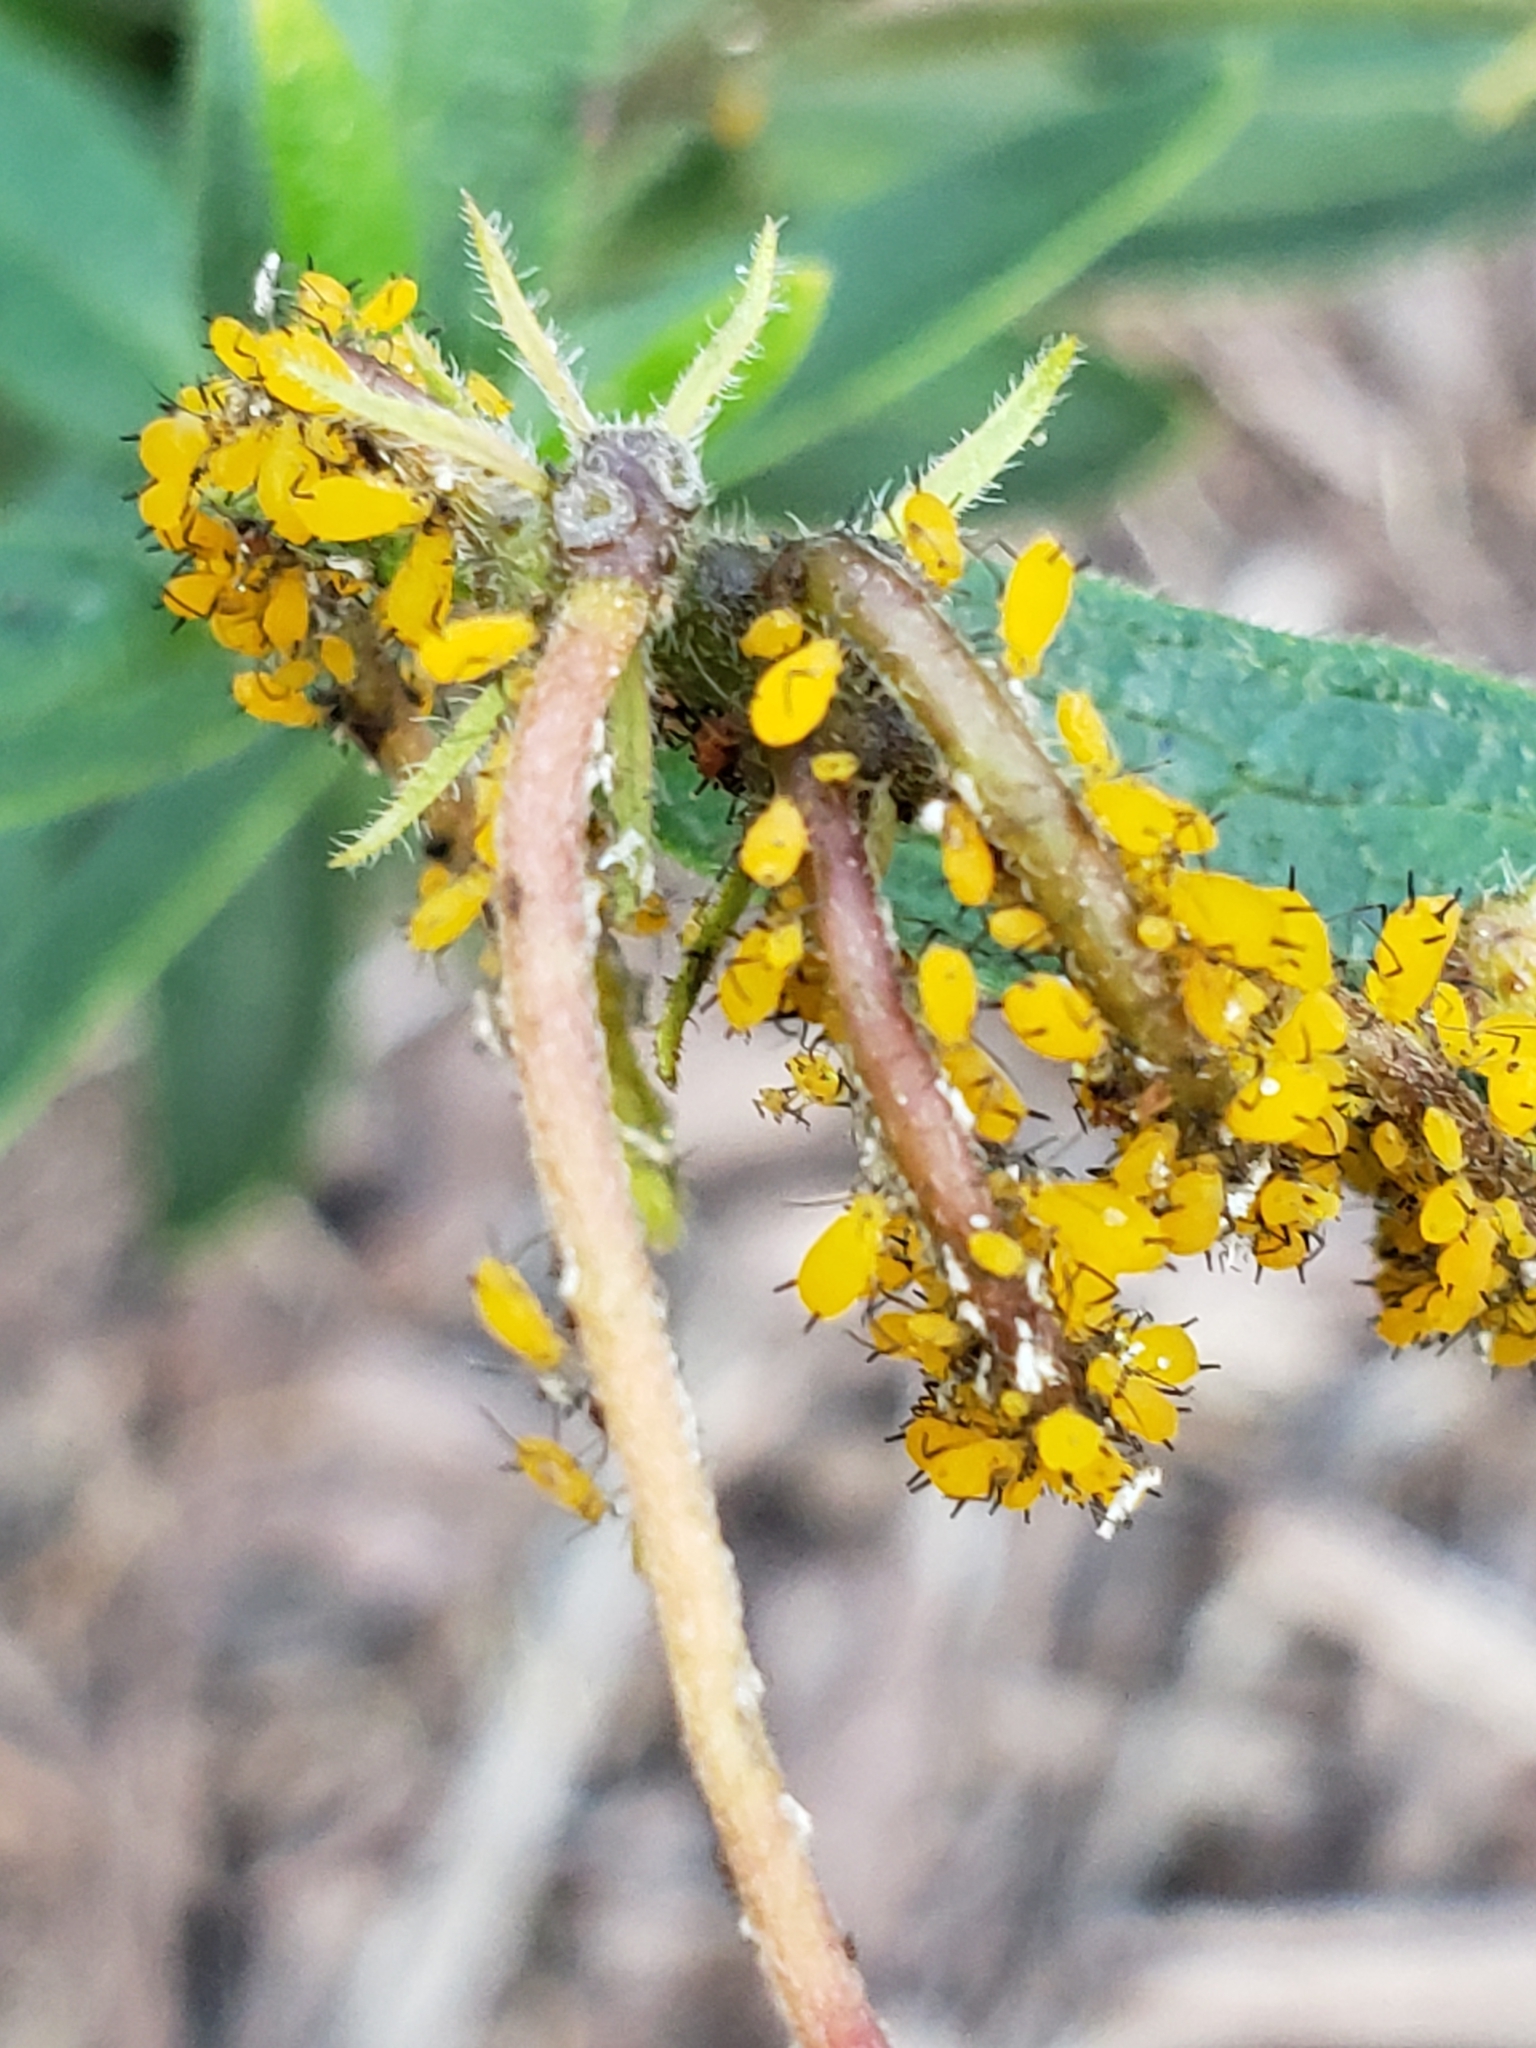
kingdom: Animalia
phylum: Arthropoda
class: Insecta
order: Hemiptera
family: Aphididae
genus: Aphis
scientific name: Aphis nerii
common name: Oleander aphid
